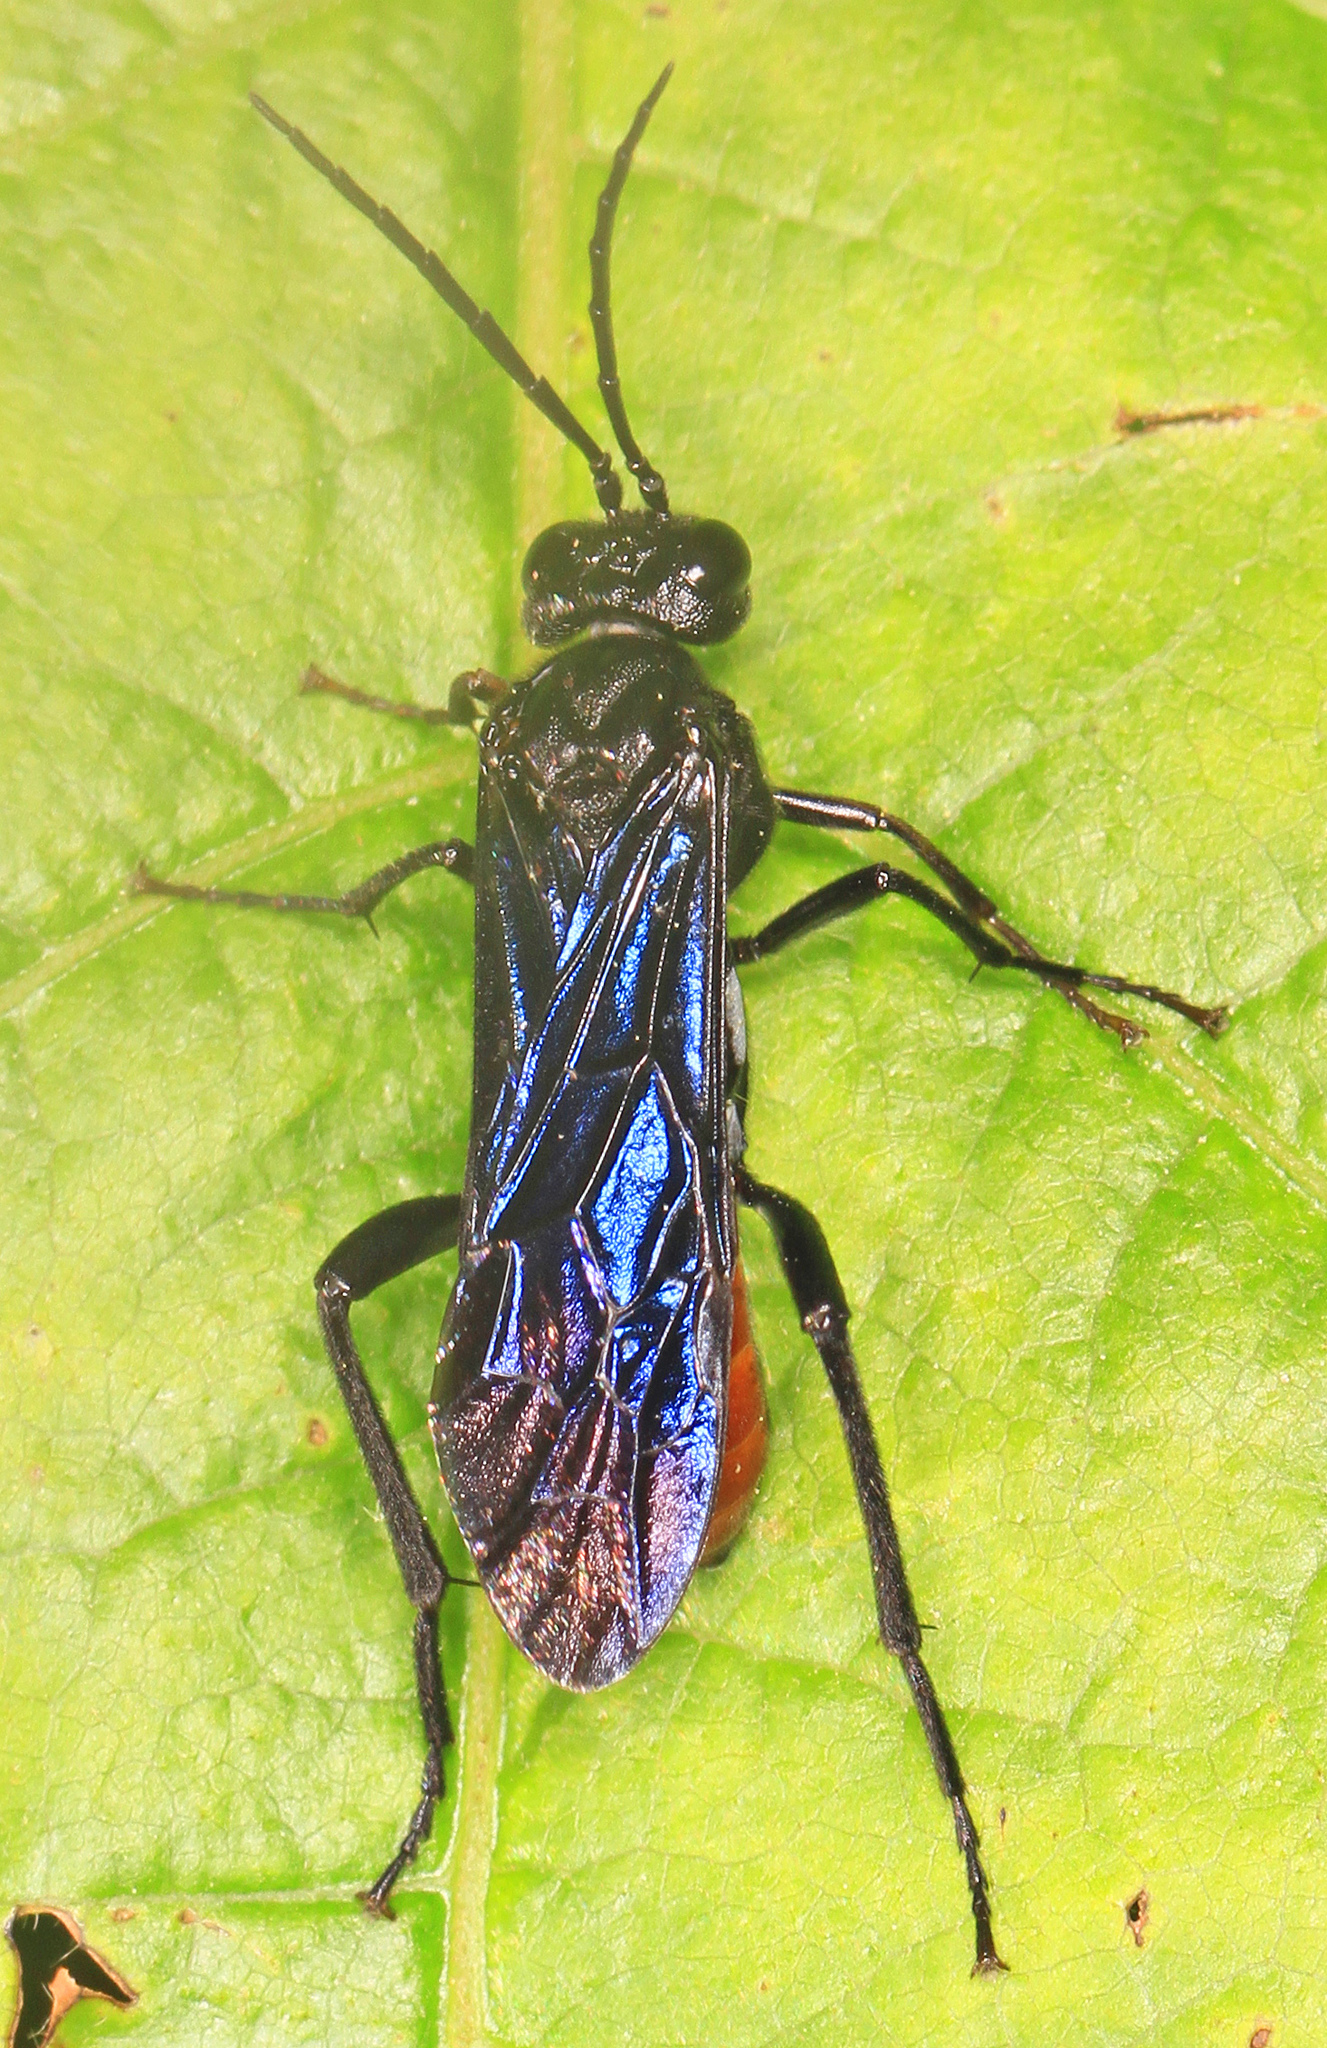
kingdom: Animalia
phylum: Arthropoda
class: Insecta
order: Hymenoptera
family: Tenthredinidae
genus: Lagium
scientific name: Lagium atroviolaceum
